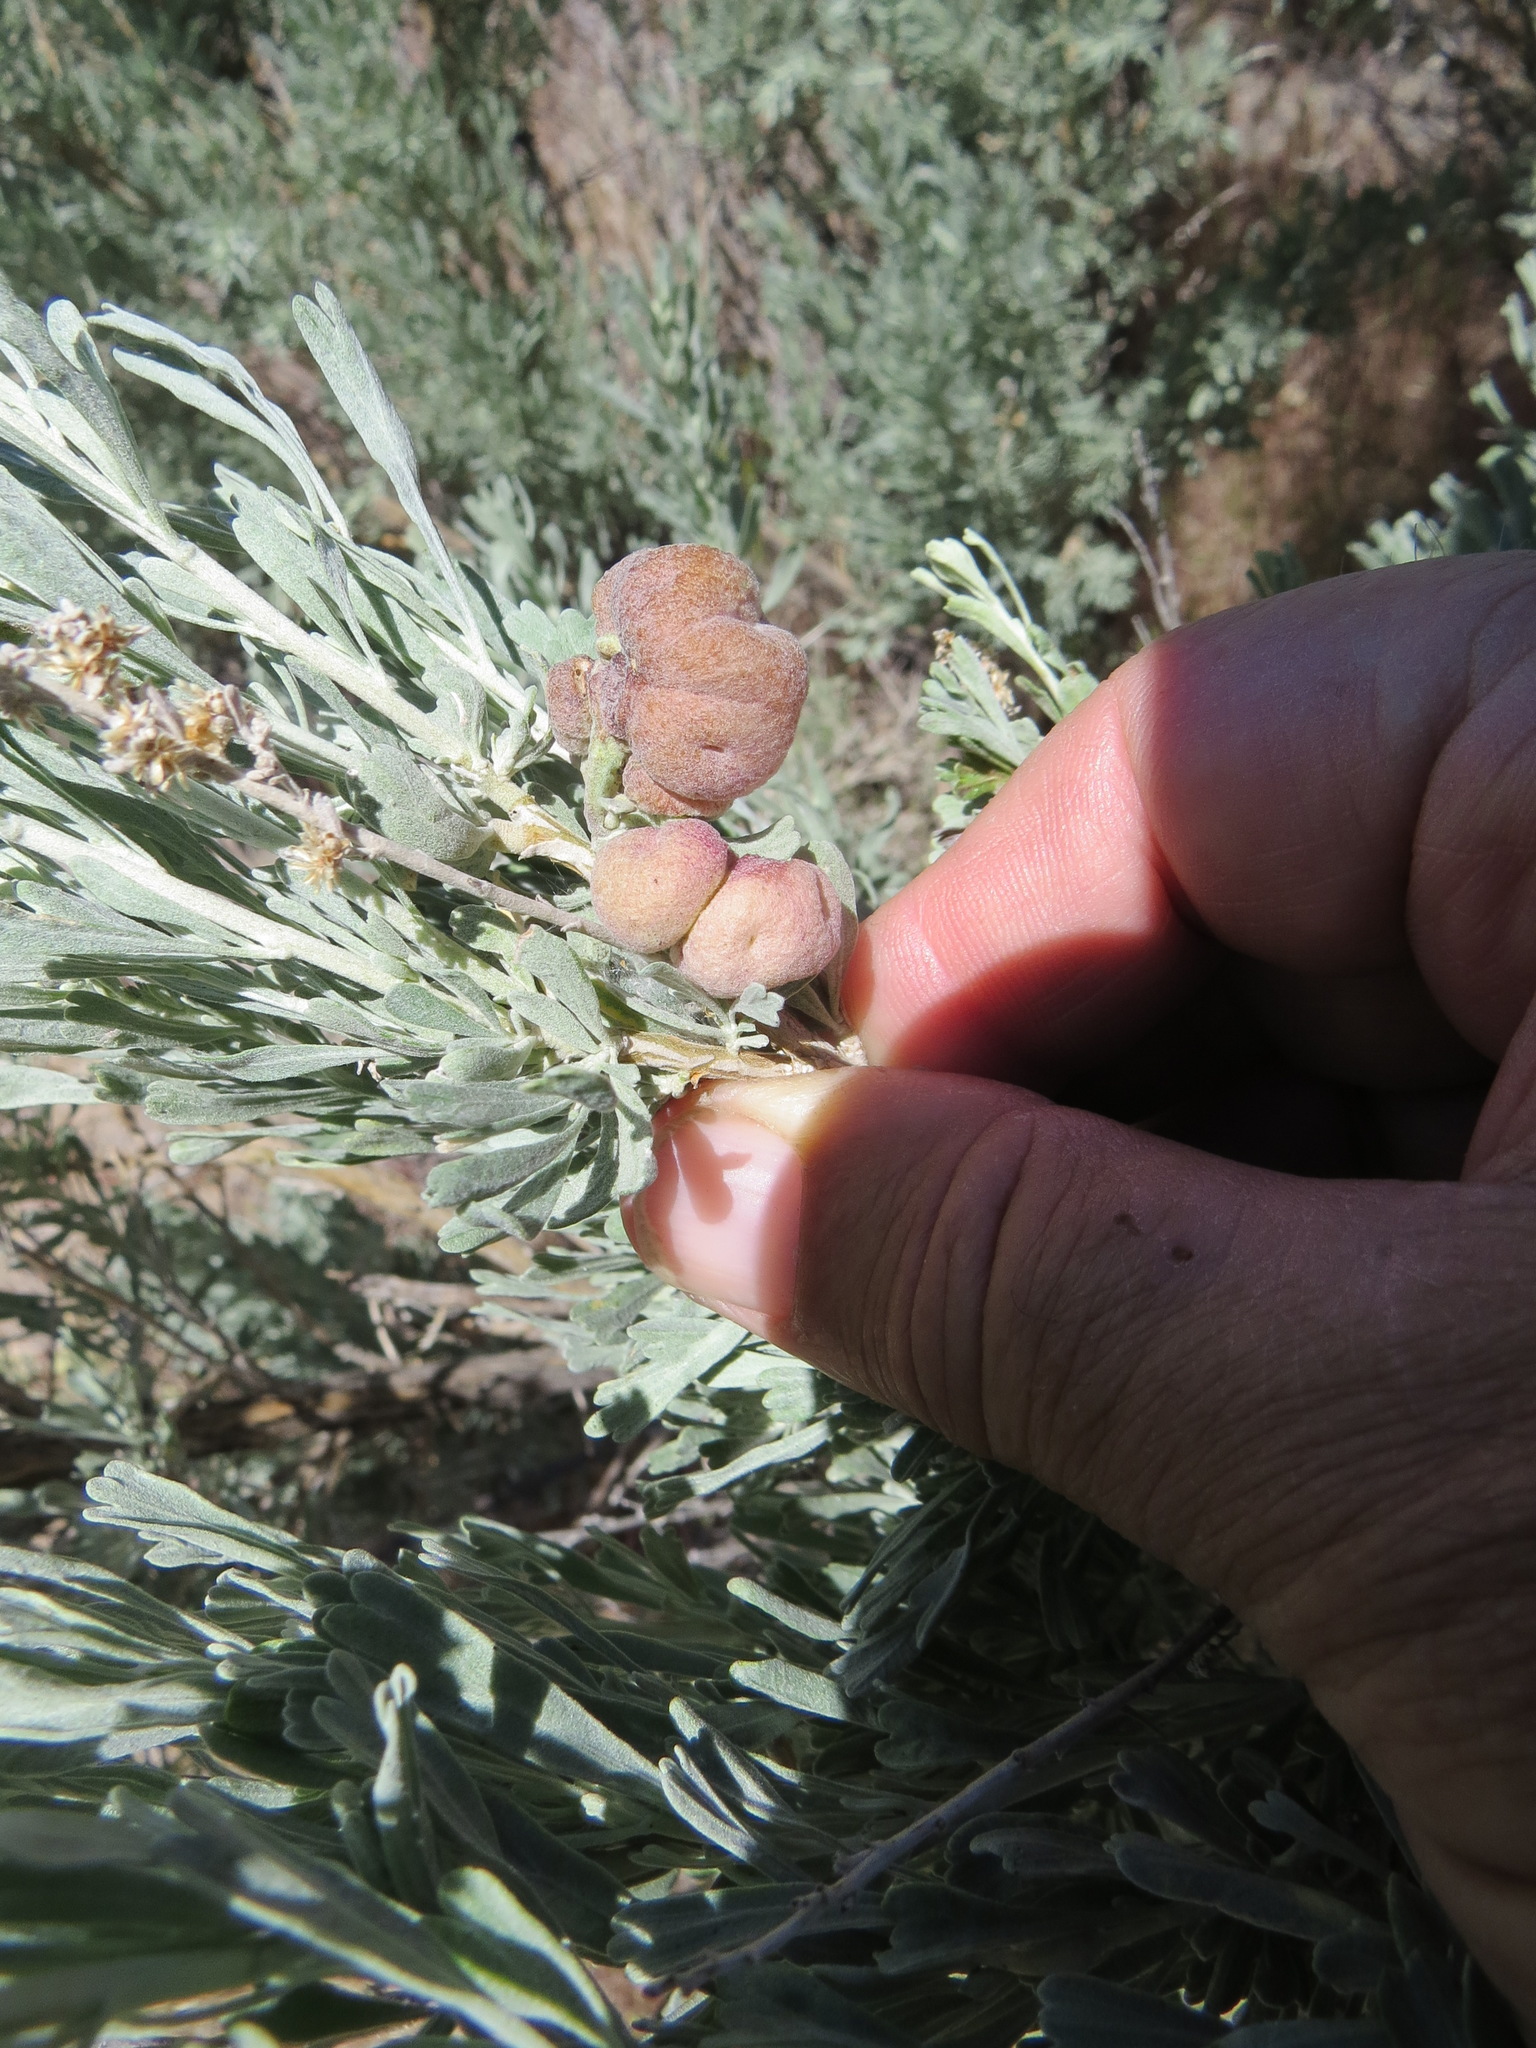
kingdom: Animalia
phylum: Arthropoda
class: Insecta
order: Diptera
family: Cecidomyiidae
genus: Rhopalomyia
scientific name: Rhopalomyia pomum
